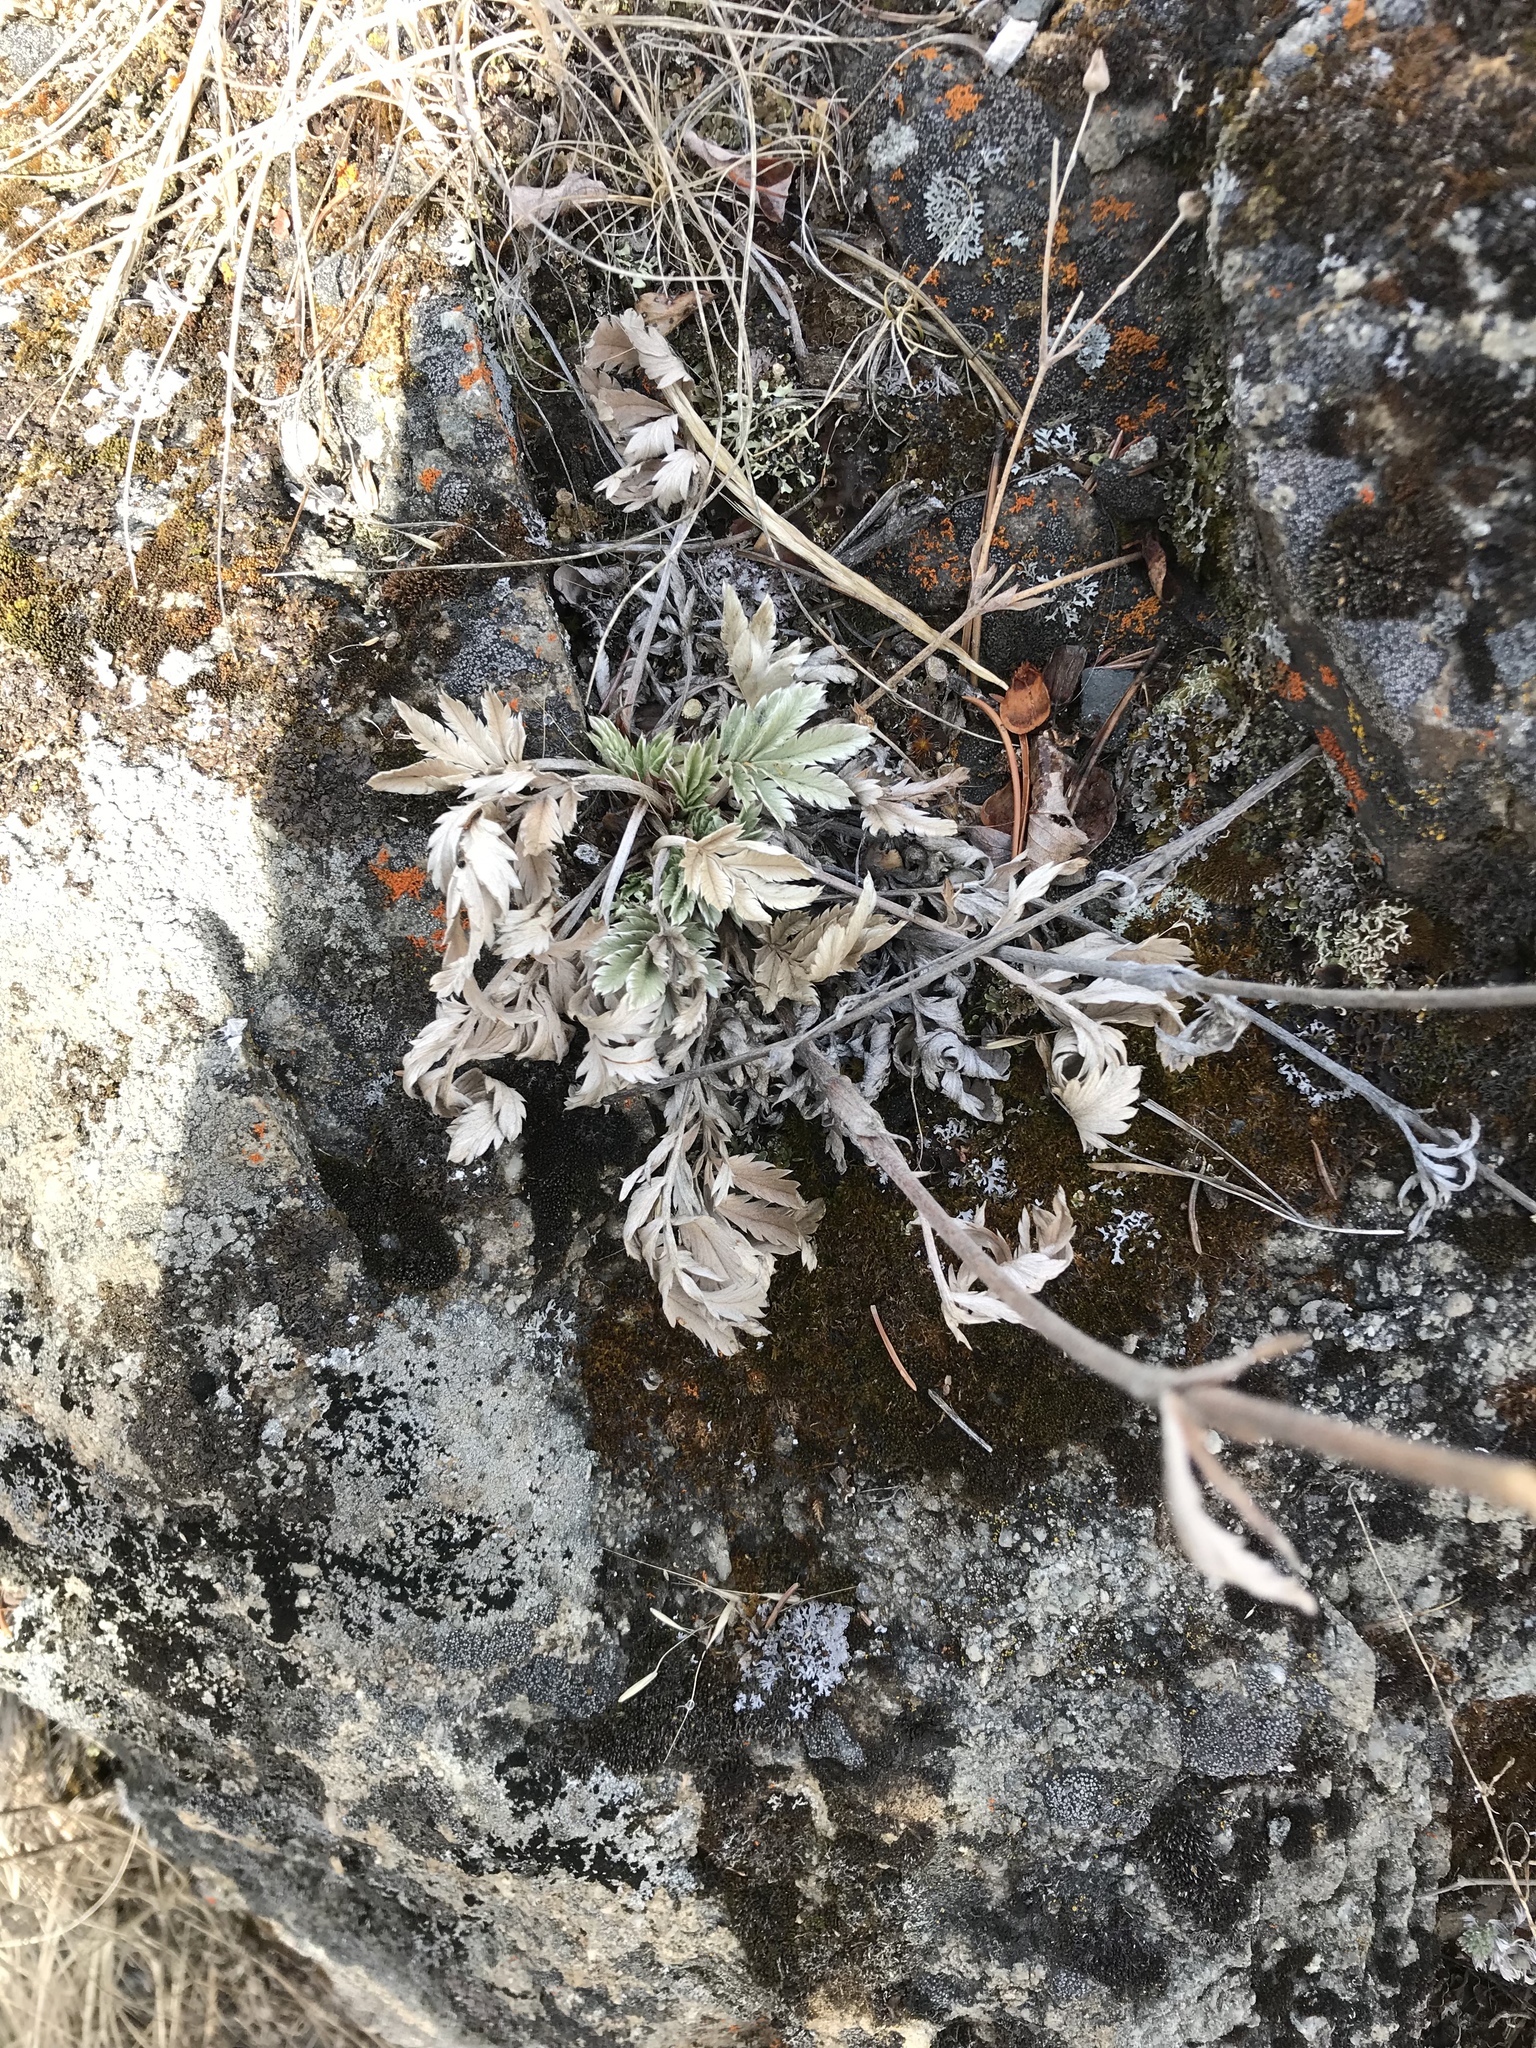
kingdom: Plantae
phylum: Tracheophyta
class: Magnoliopsida
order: Rosales
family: Rosaceae
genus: Potentilla
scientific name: Potentilla hippiana
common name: Woolly cinquefoil
